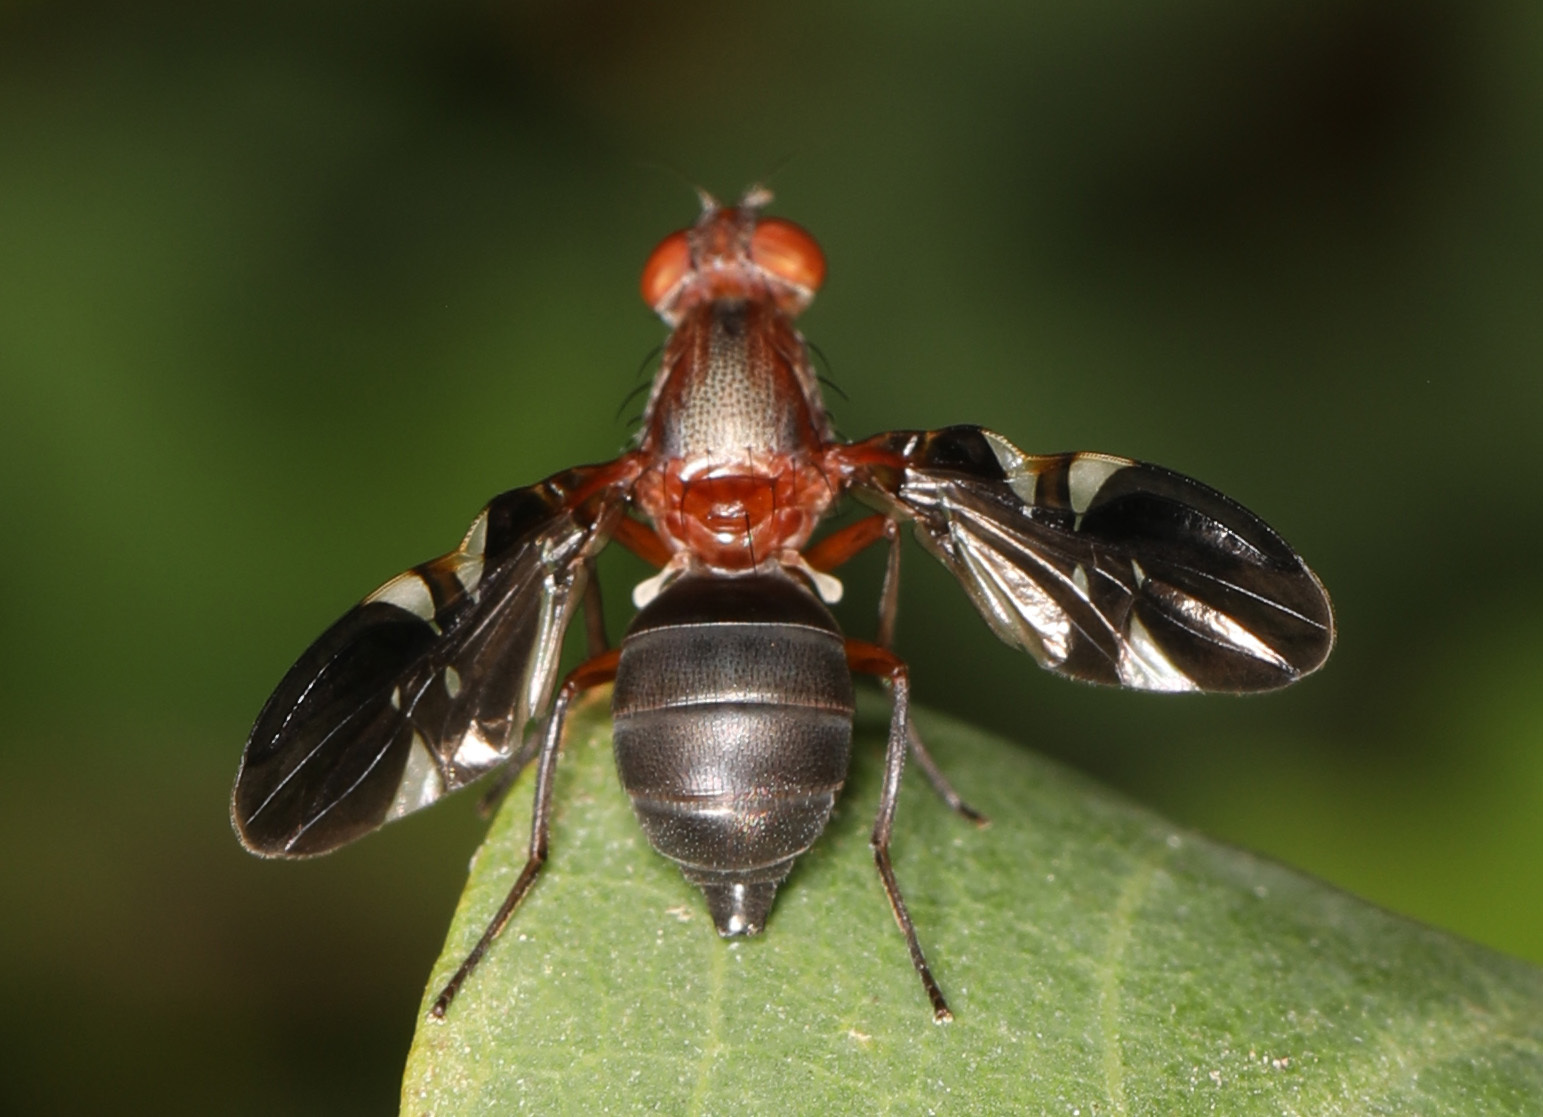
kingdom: Animalia
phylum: Arthropoda
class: Insecta
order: Diptera
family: Ulidiidae
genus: Delphinia
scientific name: Delphinia picta
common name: Common picture-winged fly
